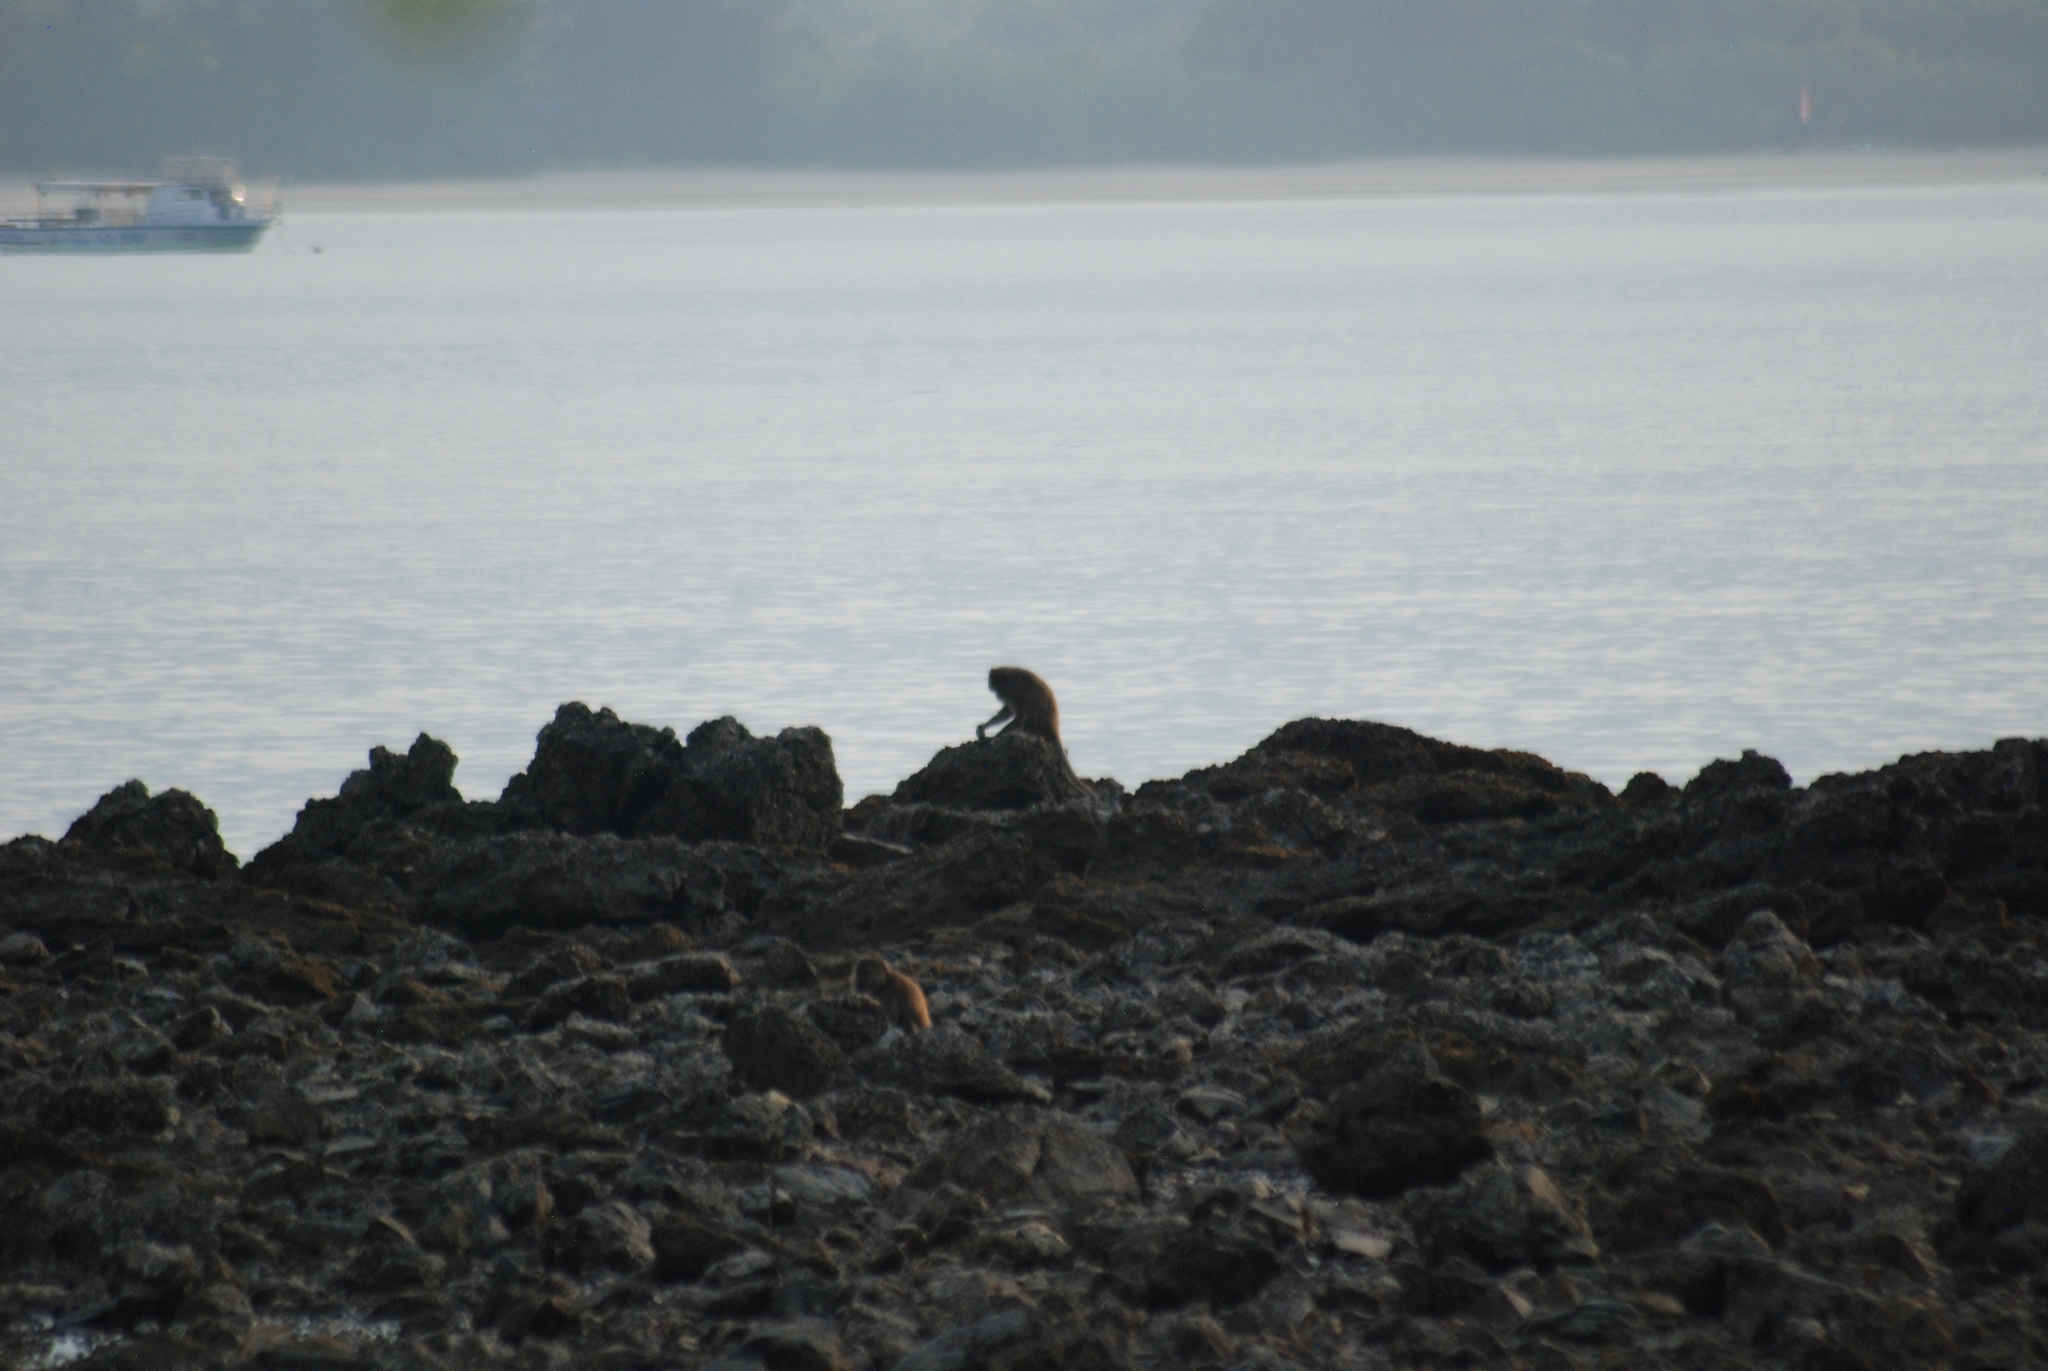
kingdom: Animalia
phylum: Chordata
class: Mammalia
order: Primates
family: Cercopithecidae
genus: Macaca
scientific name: Macaca fascicularis
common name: Crab-eating macaque
